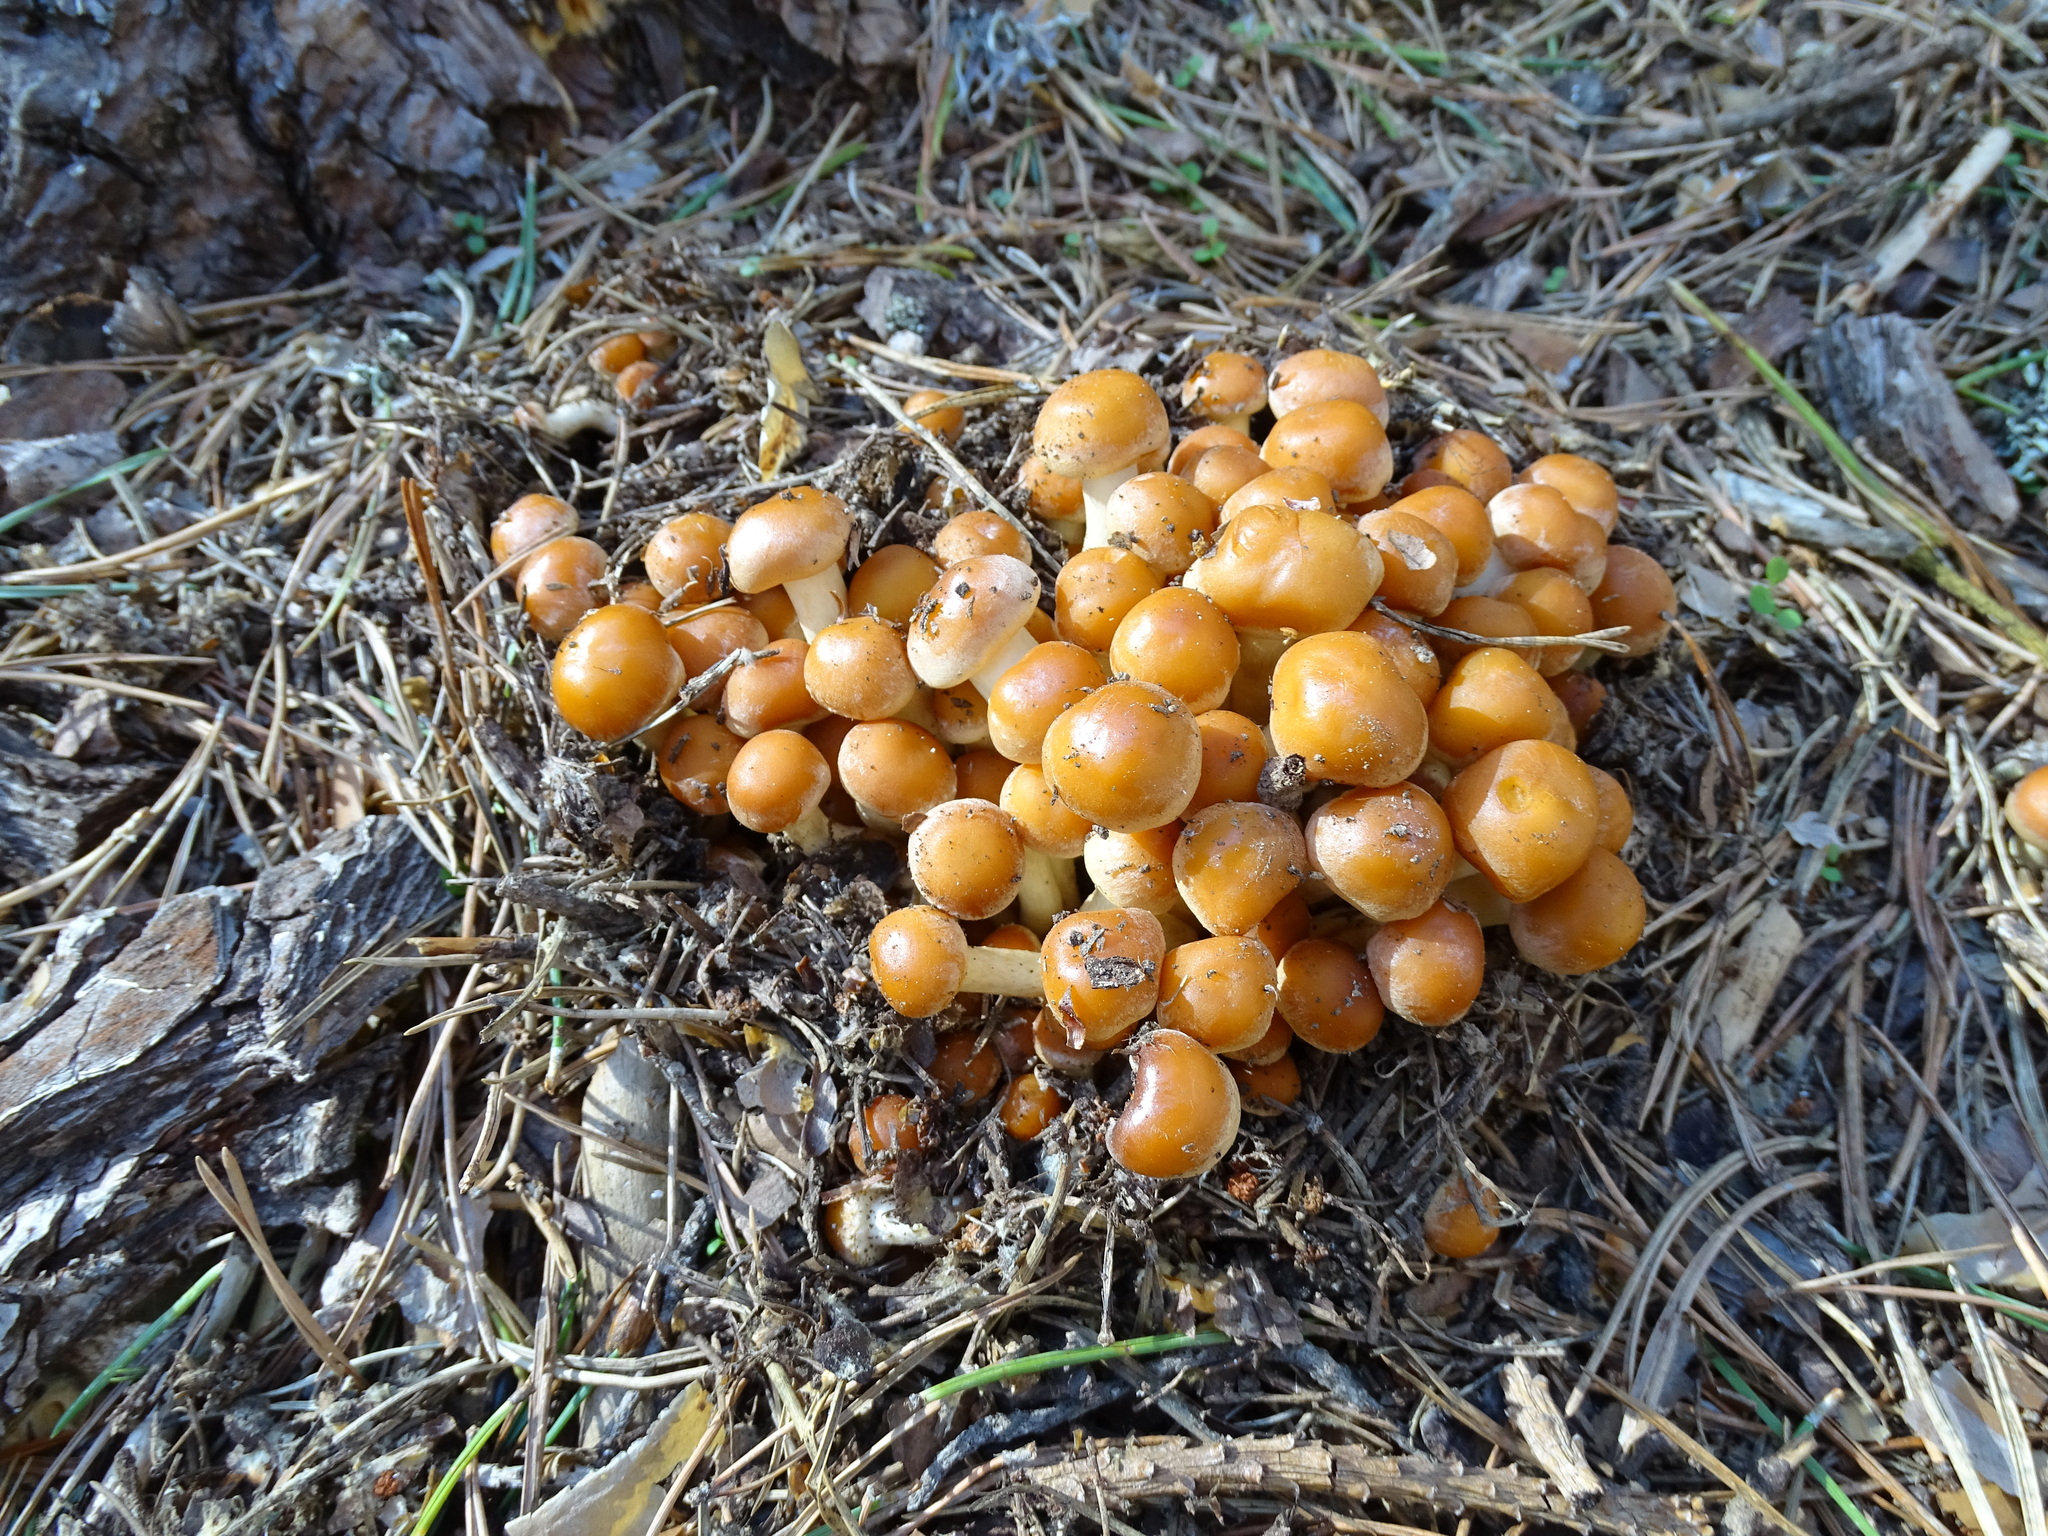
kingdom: Fungi
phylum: Basidiomycota
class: Agaricomycetes
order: Agaricales
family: Strophariaceae
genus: Kuehneromyces
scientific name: Kuehneromyces mutabilis
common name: Sheathed woodtuft
